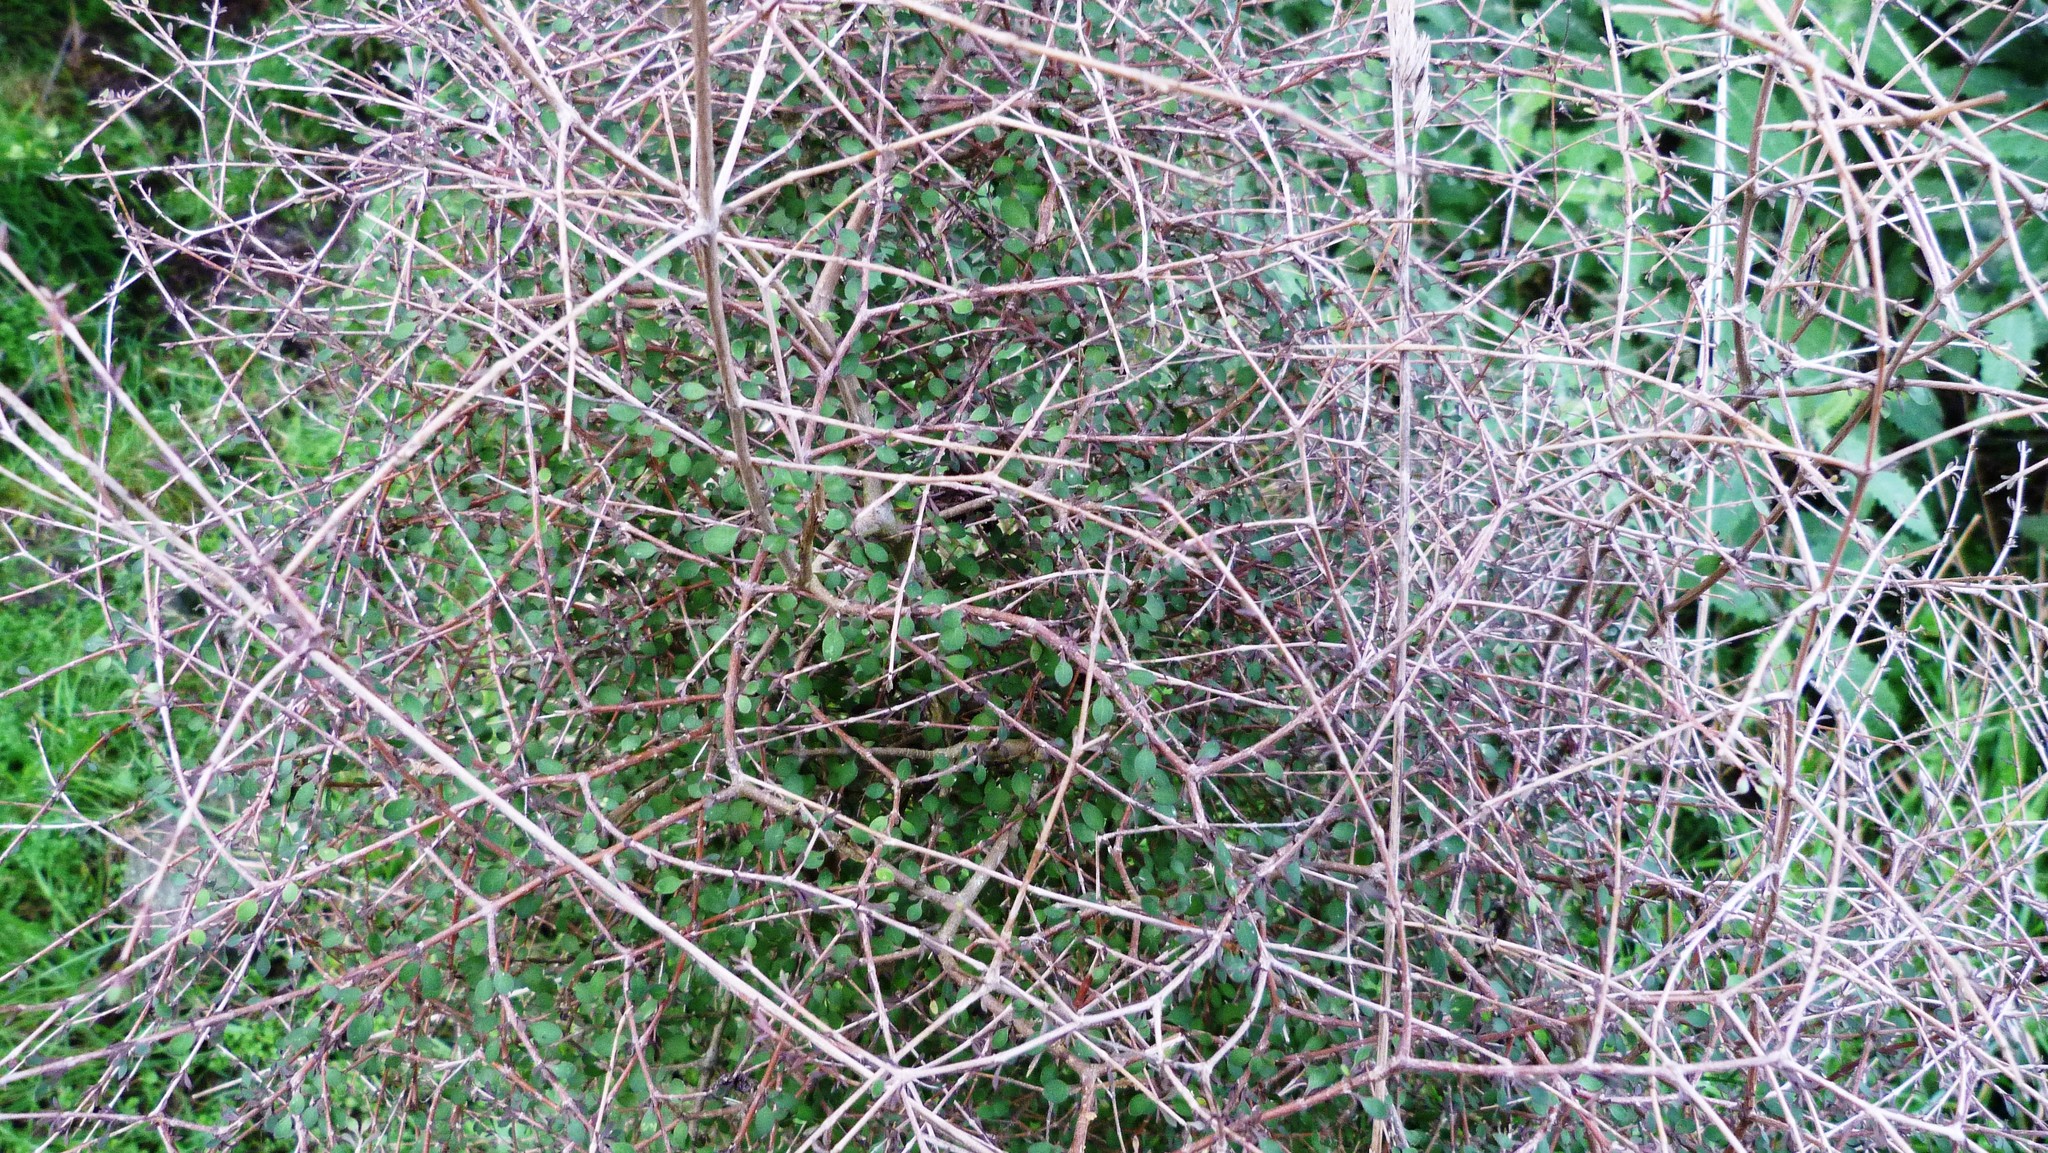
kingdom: Plantae
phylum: Tracheophyta
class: Magnoliopsida
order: Gentianales
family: Rubiaceae
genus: Coprosma
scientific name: Coprosma virescens
